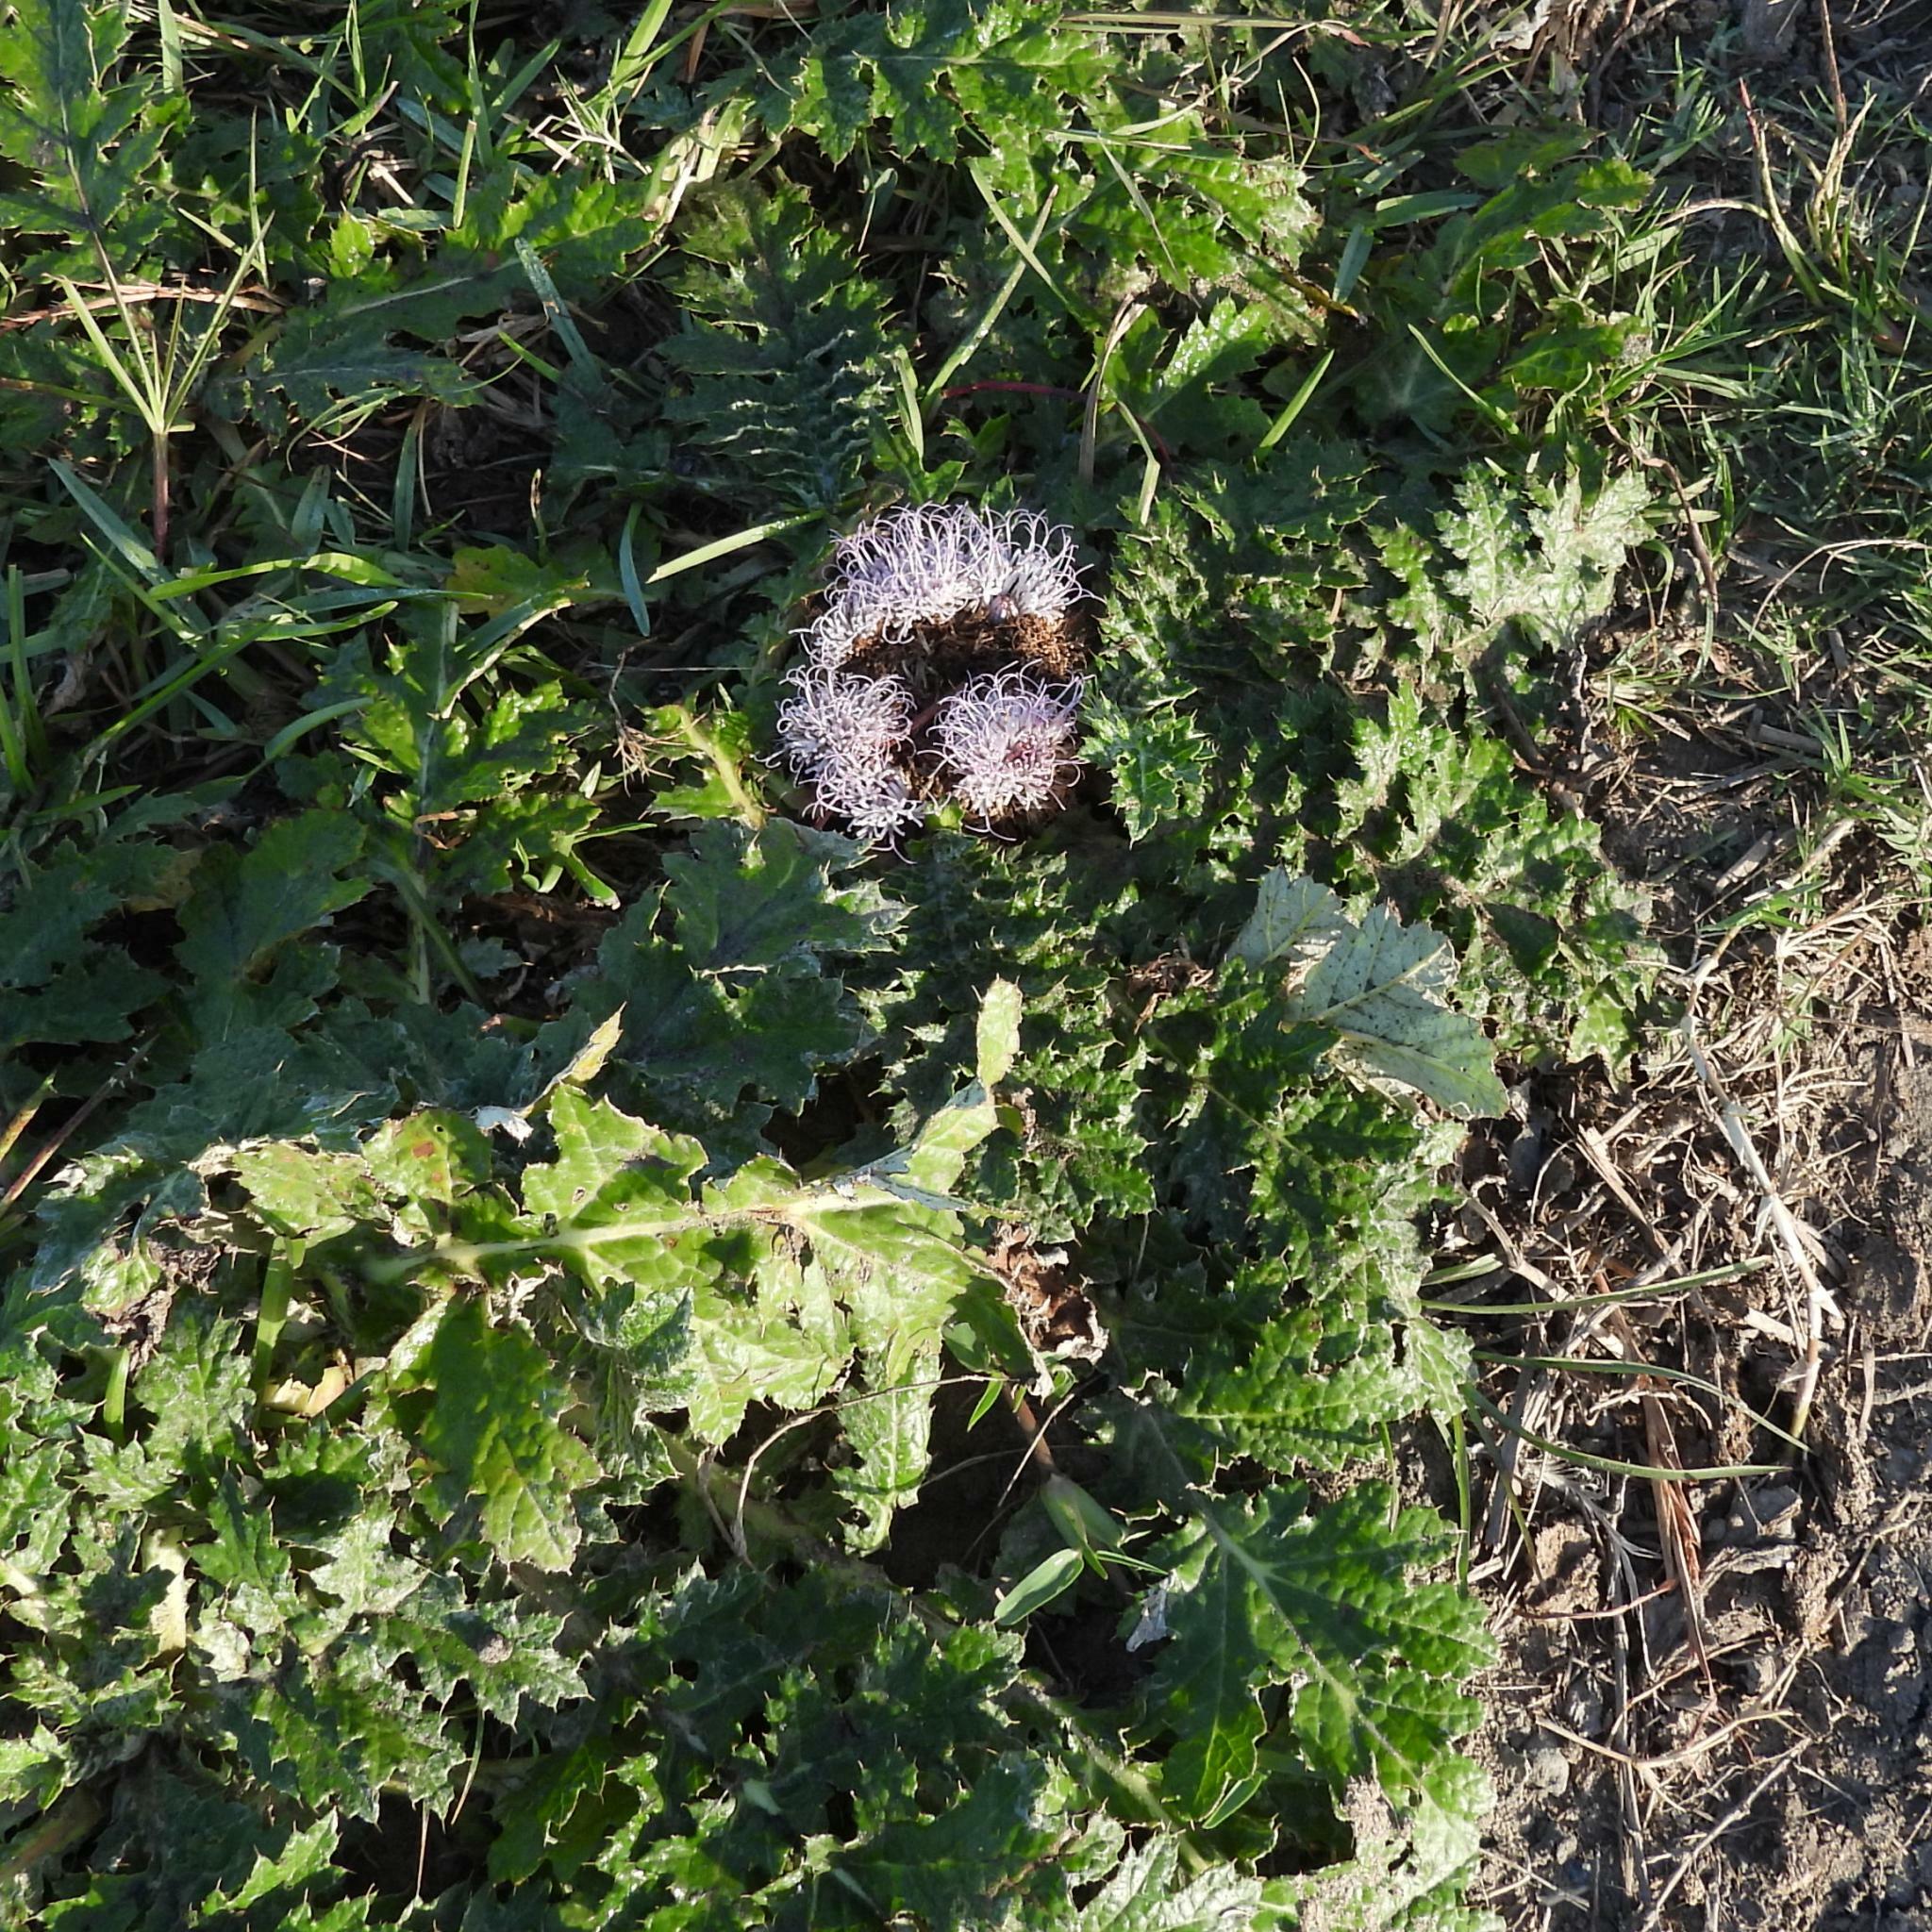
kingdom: Plantae
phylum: Tracheophyta
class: Magnoliopsida
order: Asterales
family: Asteraceae
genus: Platycarpha
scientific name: Platycarpha glomerata
